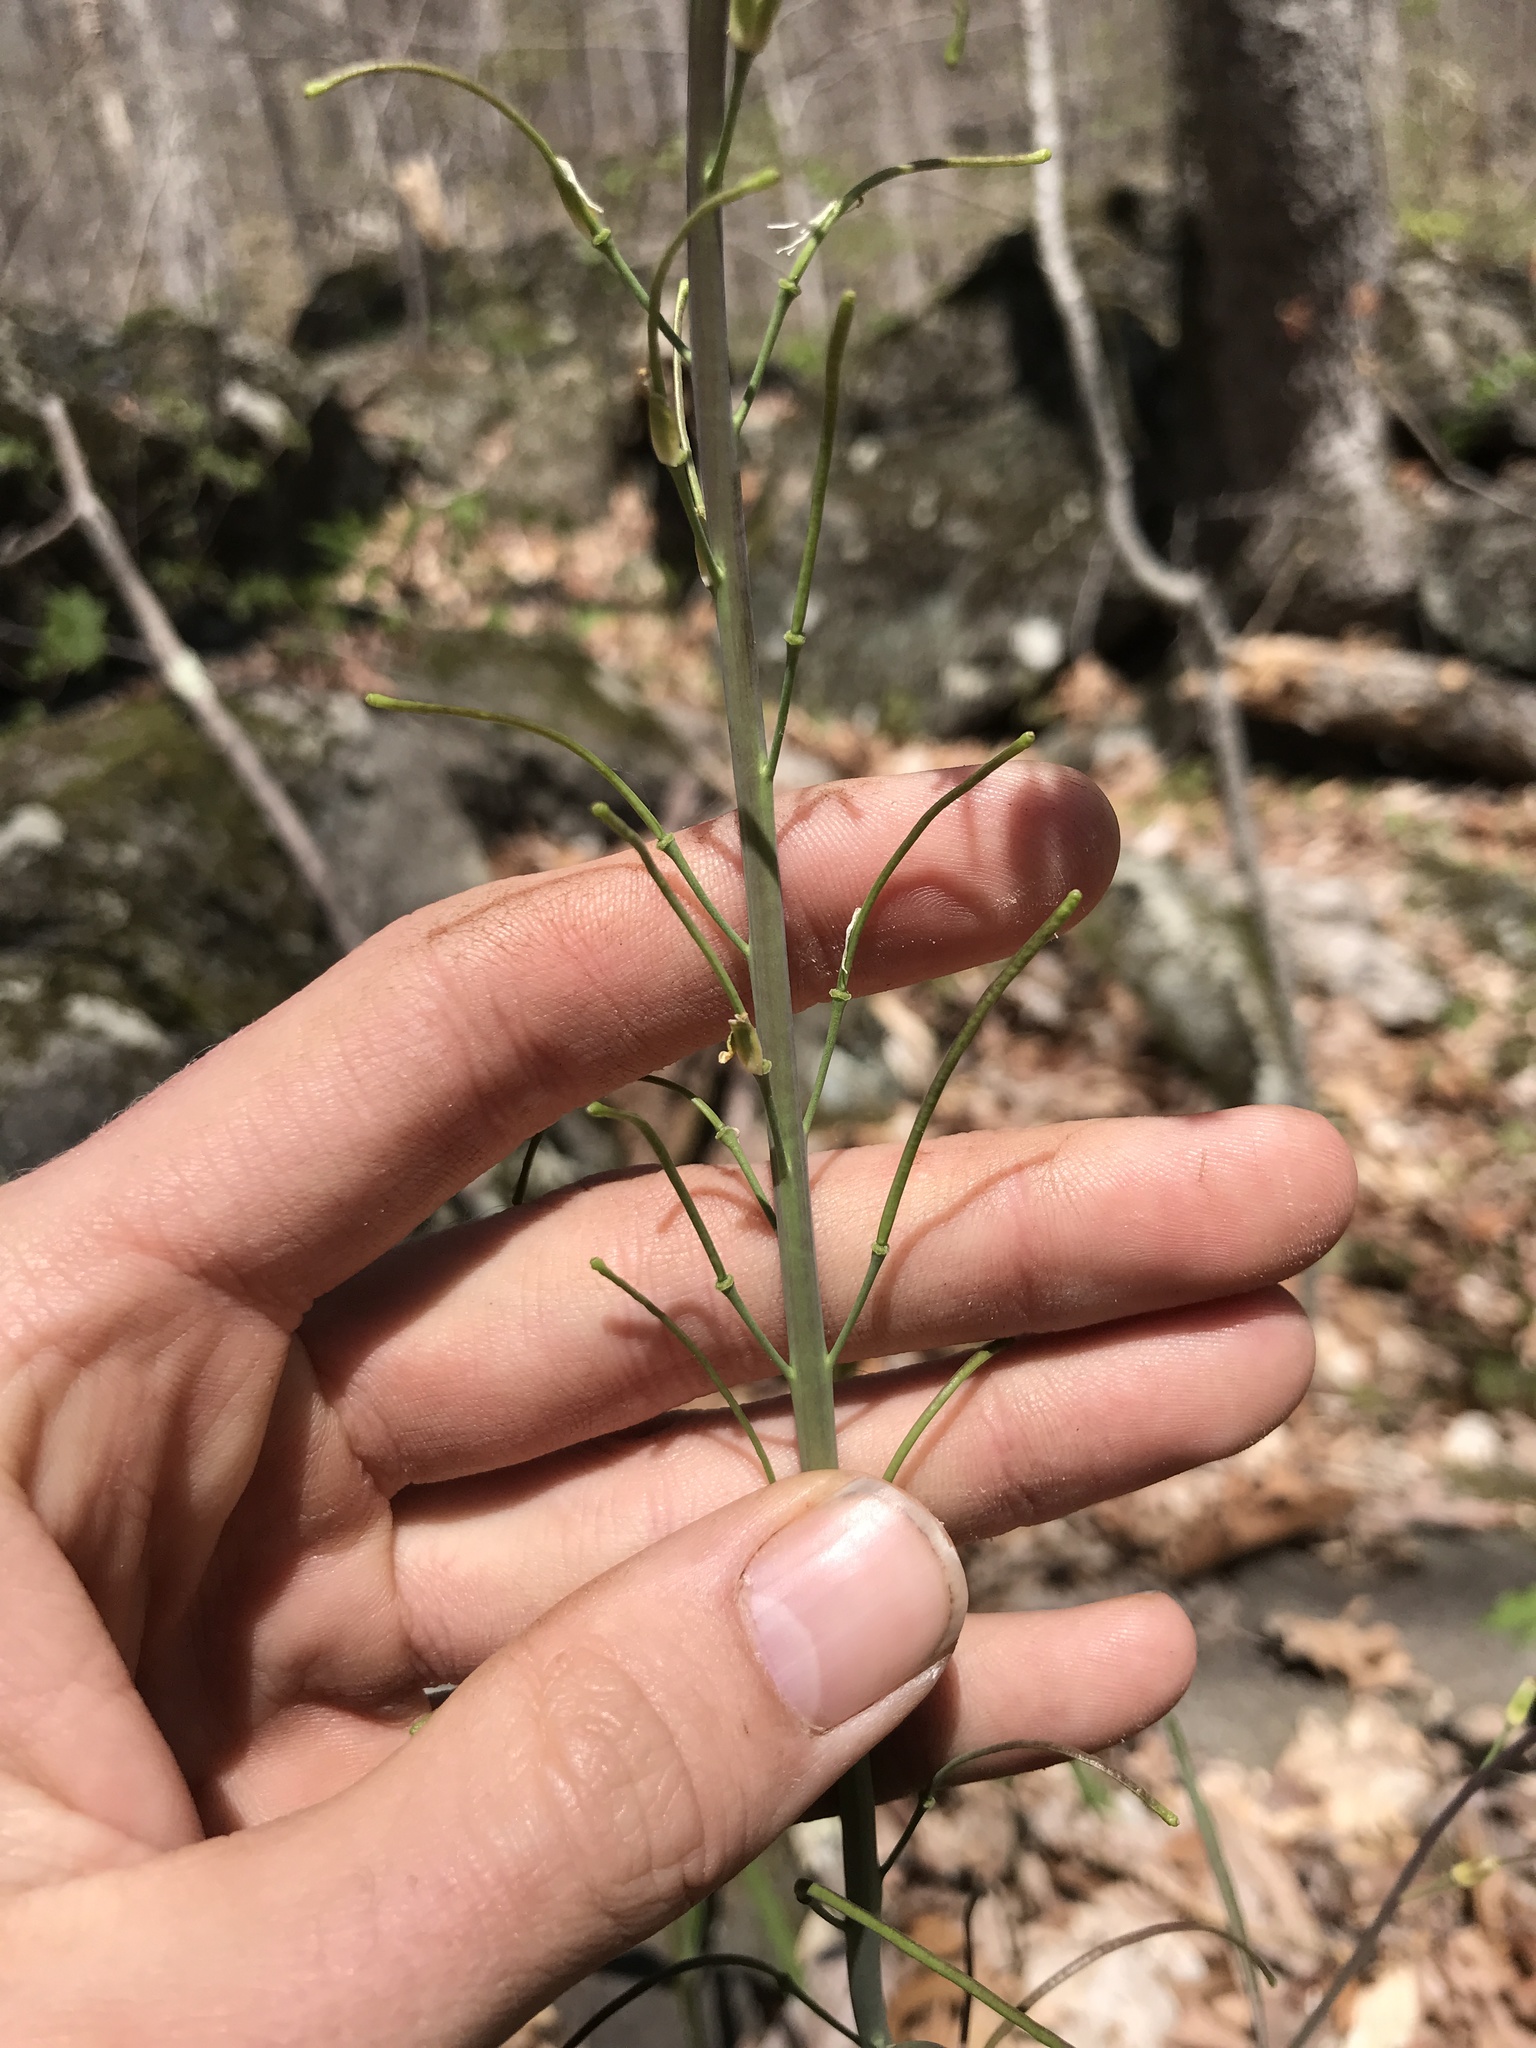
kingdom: Plantae
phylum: Tracheophyta
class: Magnoliopsida
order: Brassicales
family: Brassicaceae
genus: Borodinia
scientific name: Borodinia laevigata
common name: Smooth rockcress
